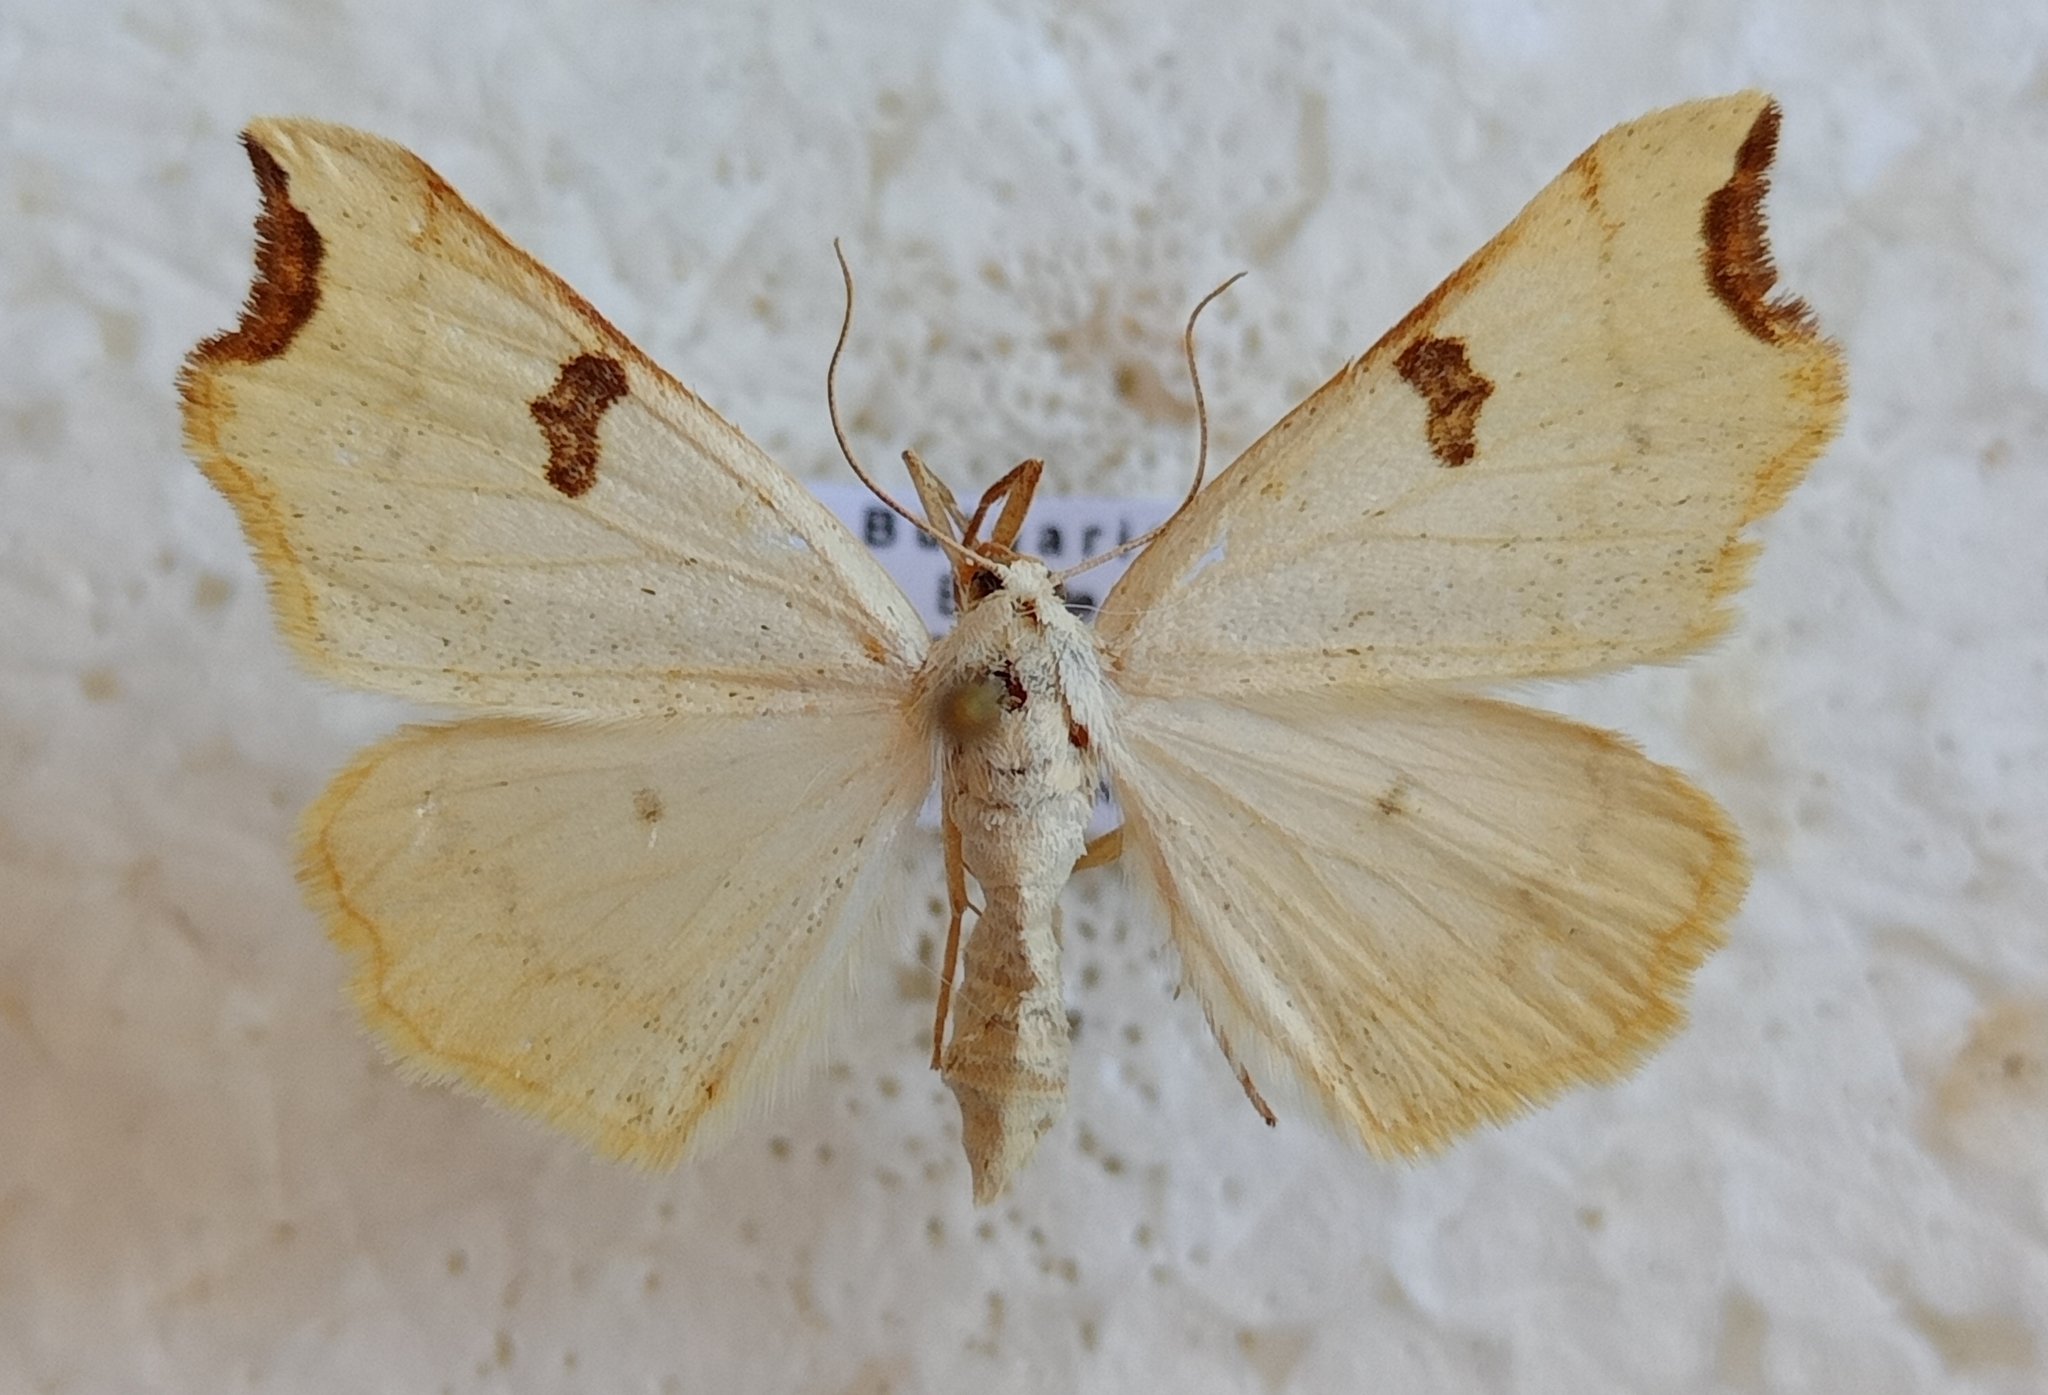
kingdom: Animalia
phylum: Arthropoda
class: Insecta
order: Lepidoptera
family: Geometridae
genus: Eilicrinia
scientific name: Eilicrinia cordiaria
